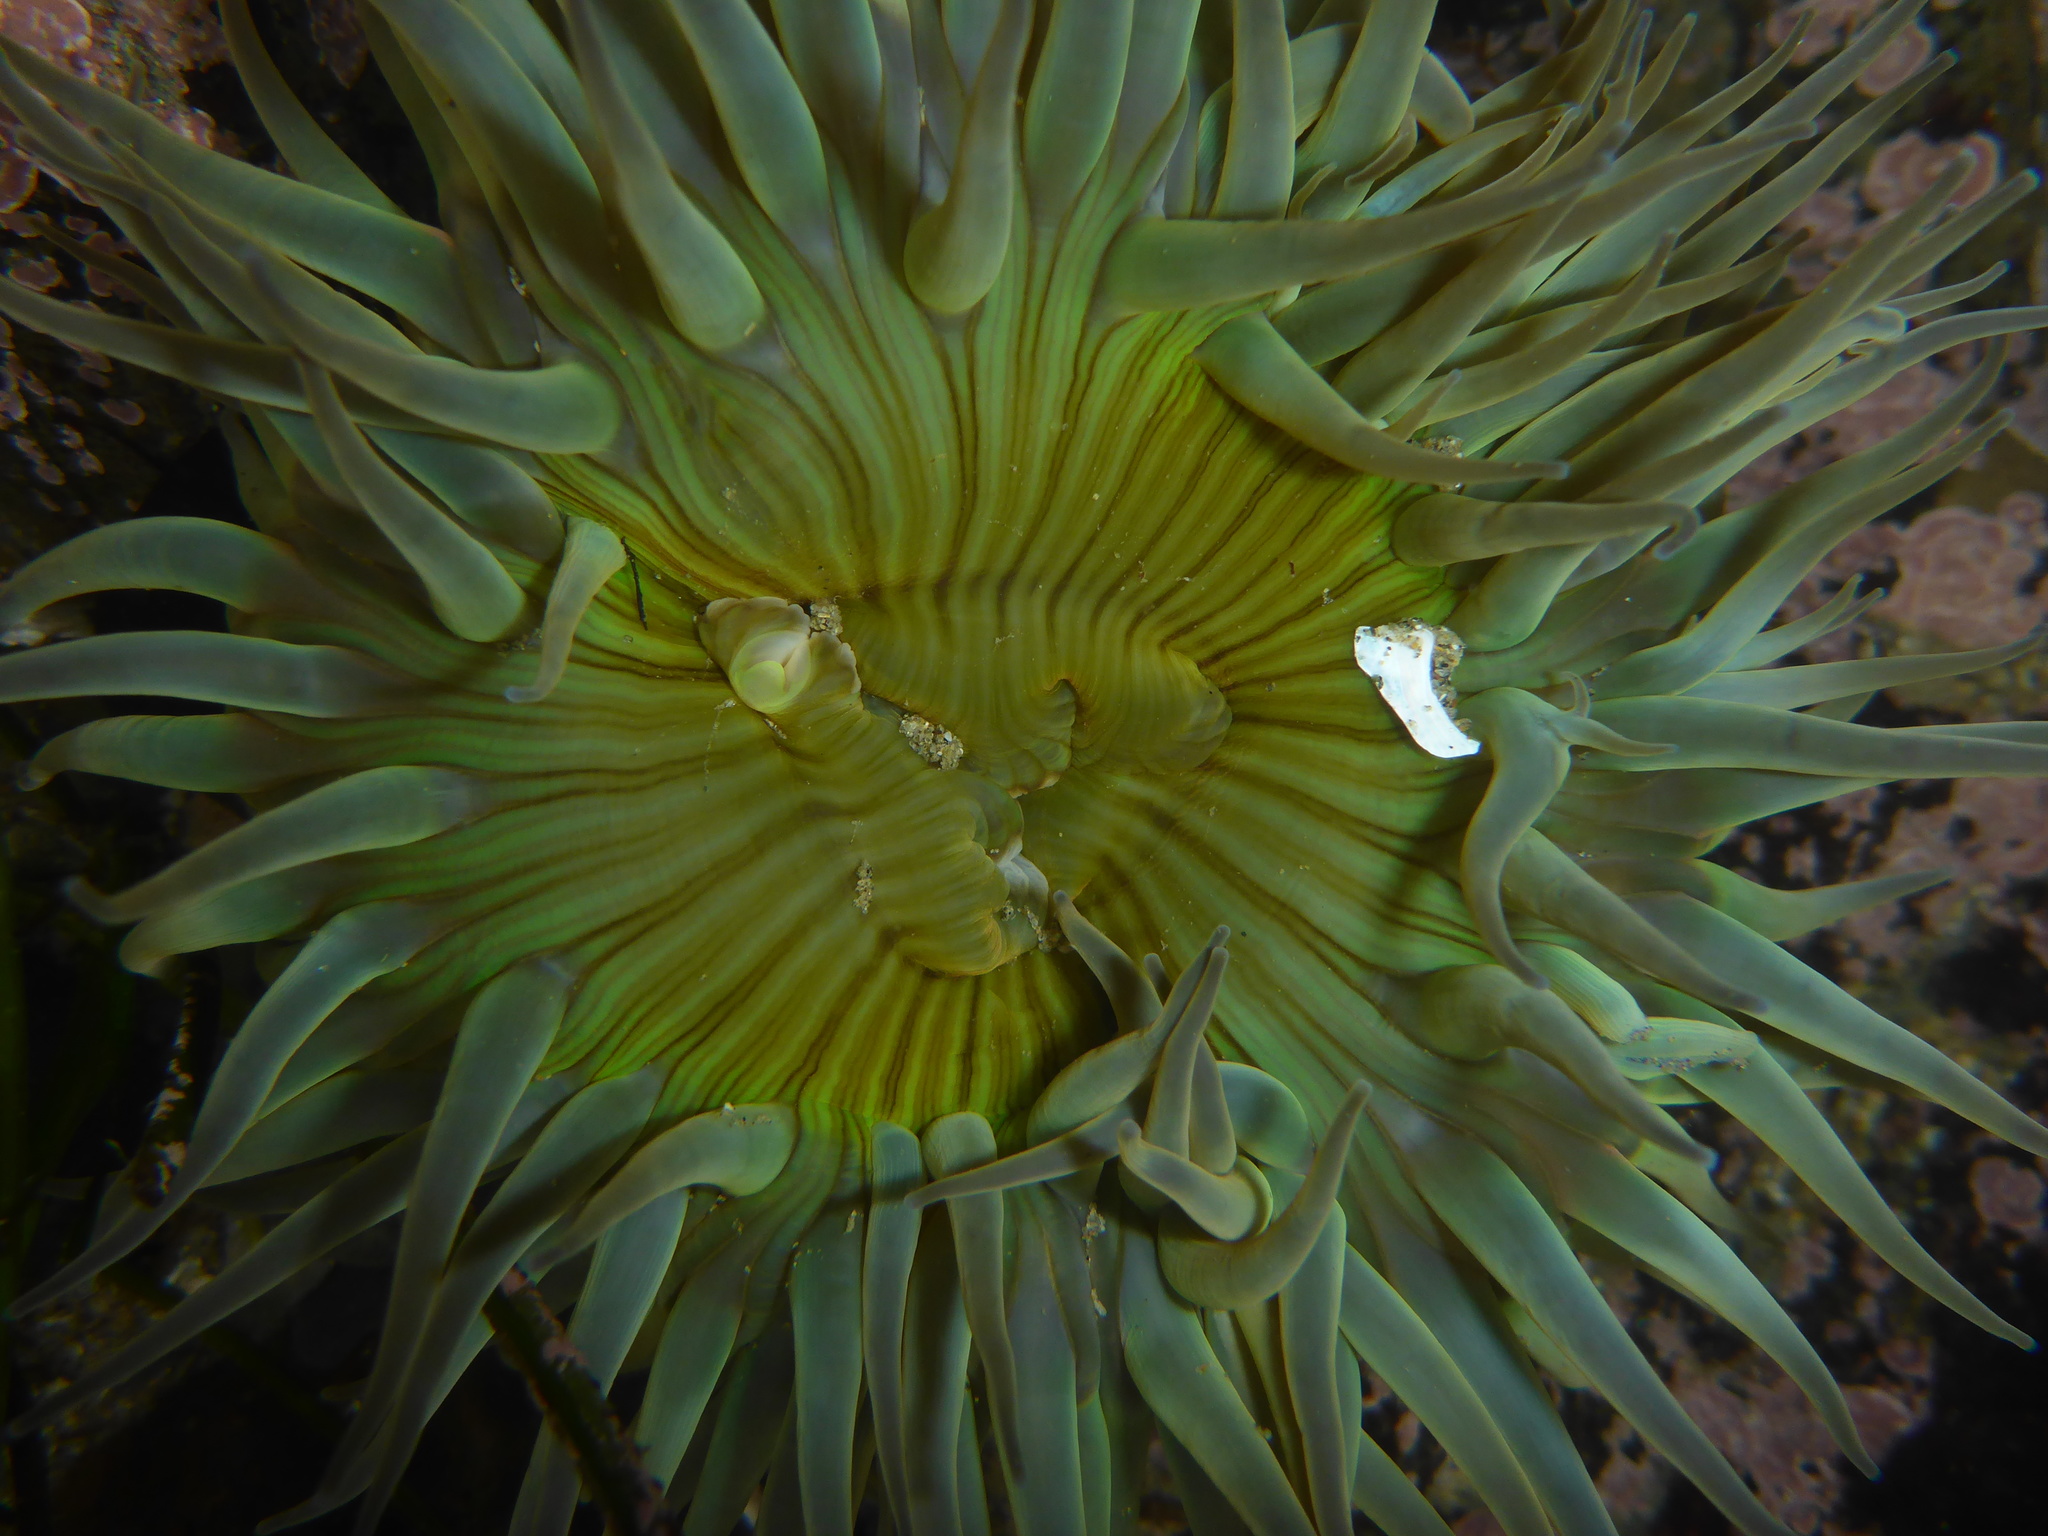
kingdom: Animalia
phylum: Cnidaria
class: Anthozoa
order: Actiniaria
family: Actiniidae
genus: Anthopleura
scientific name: Anthopleura sola
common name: Sun anemone
